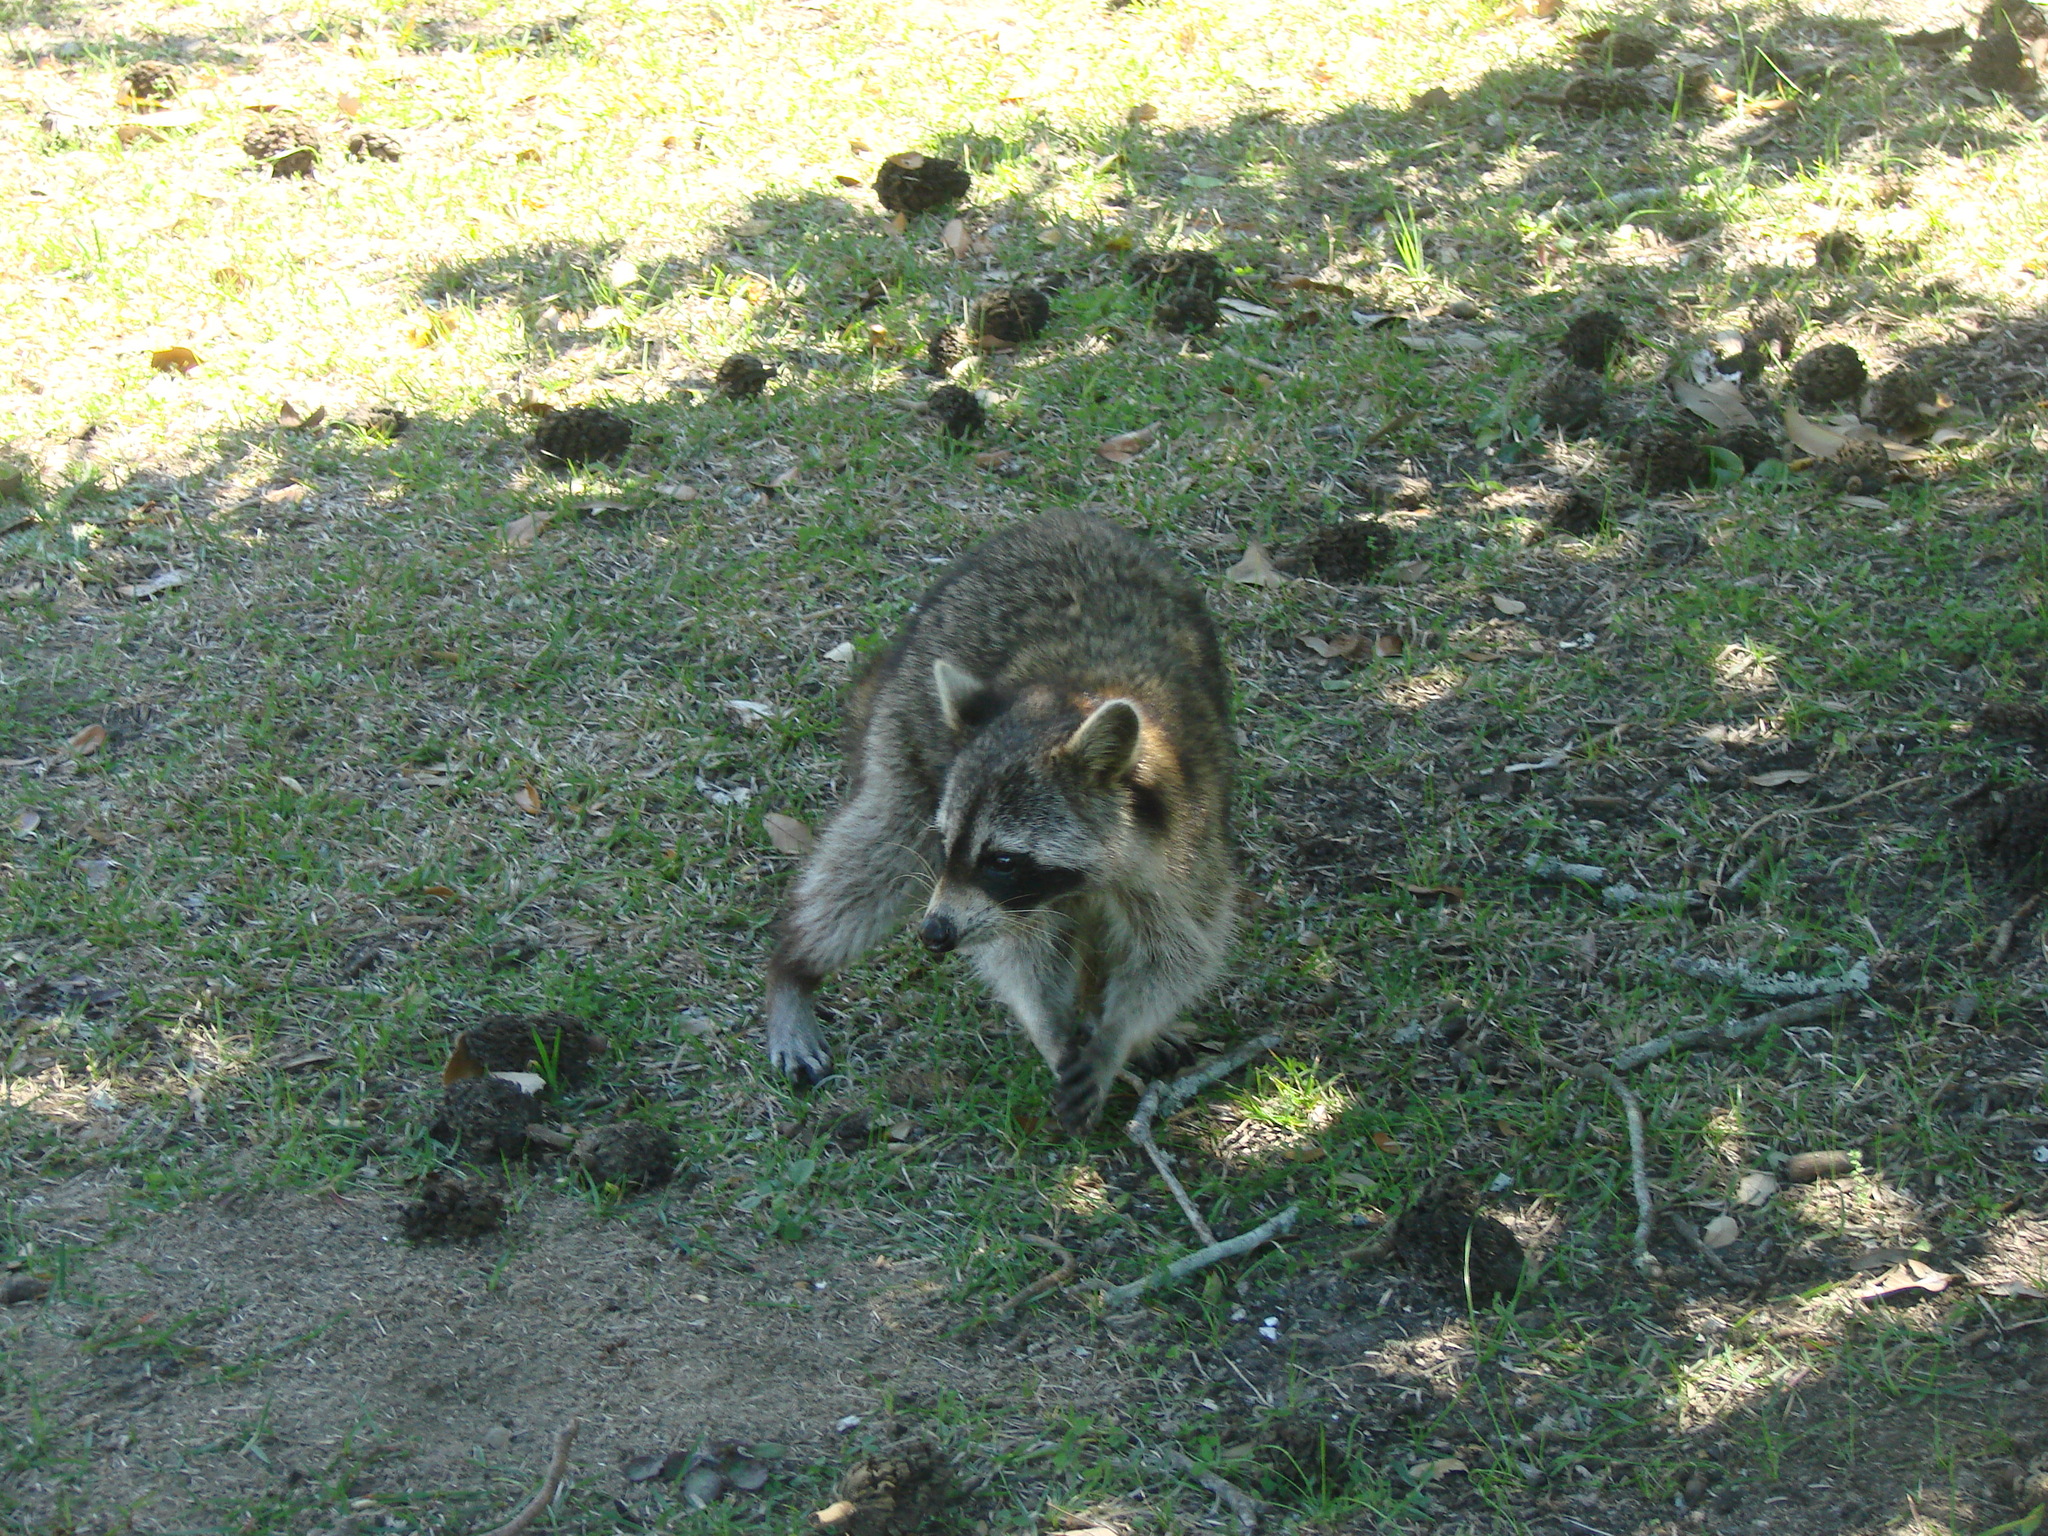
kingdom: Animalia
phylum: Chordata
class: Mammalia
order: Carnivora
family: Procyonidae
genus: Procyon
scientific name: Procyon lotor
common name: Raccoon
